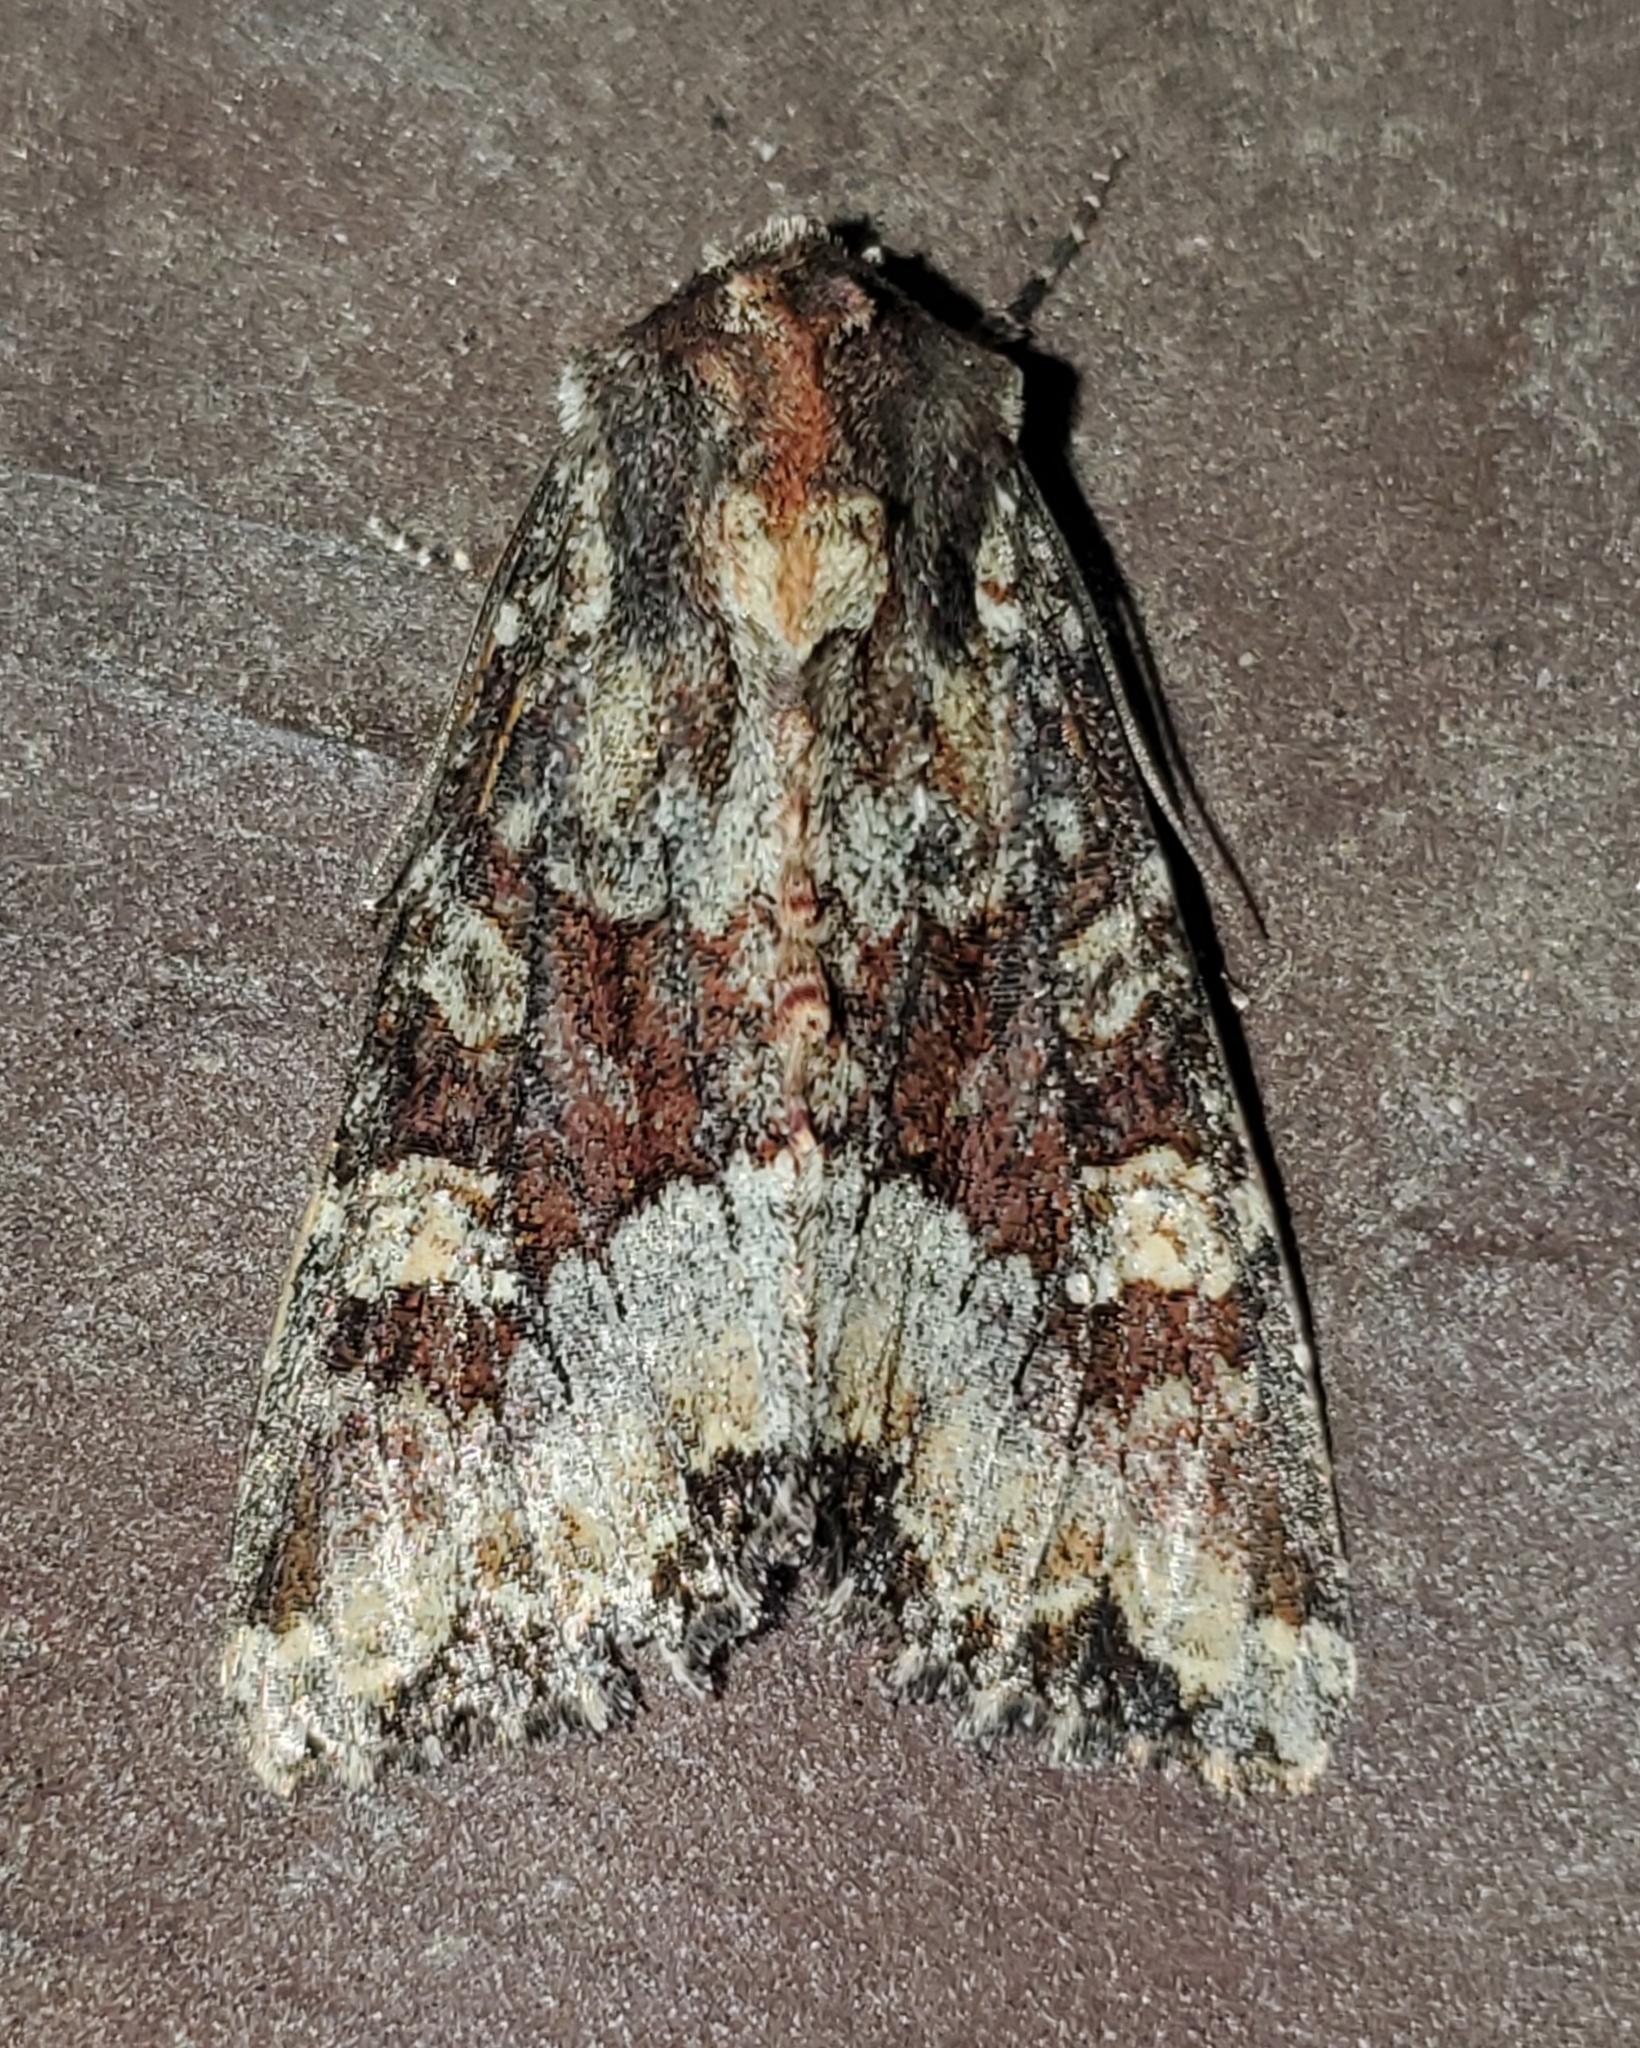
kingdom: Animalia
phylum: Arthropoda
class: Insecta
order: Lepidoptera
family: Noctuidae
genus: Apamea
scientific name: Apamea amputatrix
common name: Yellow-headed cutworm moth
